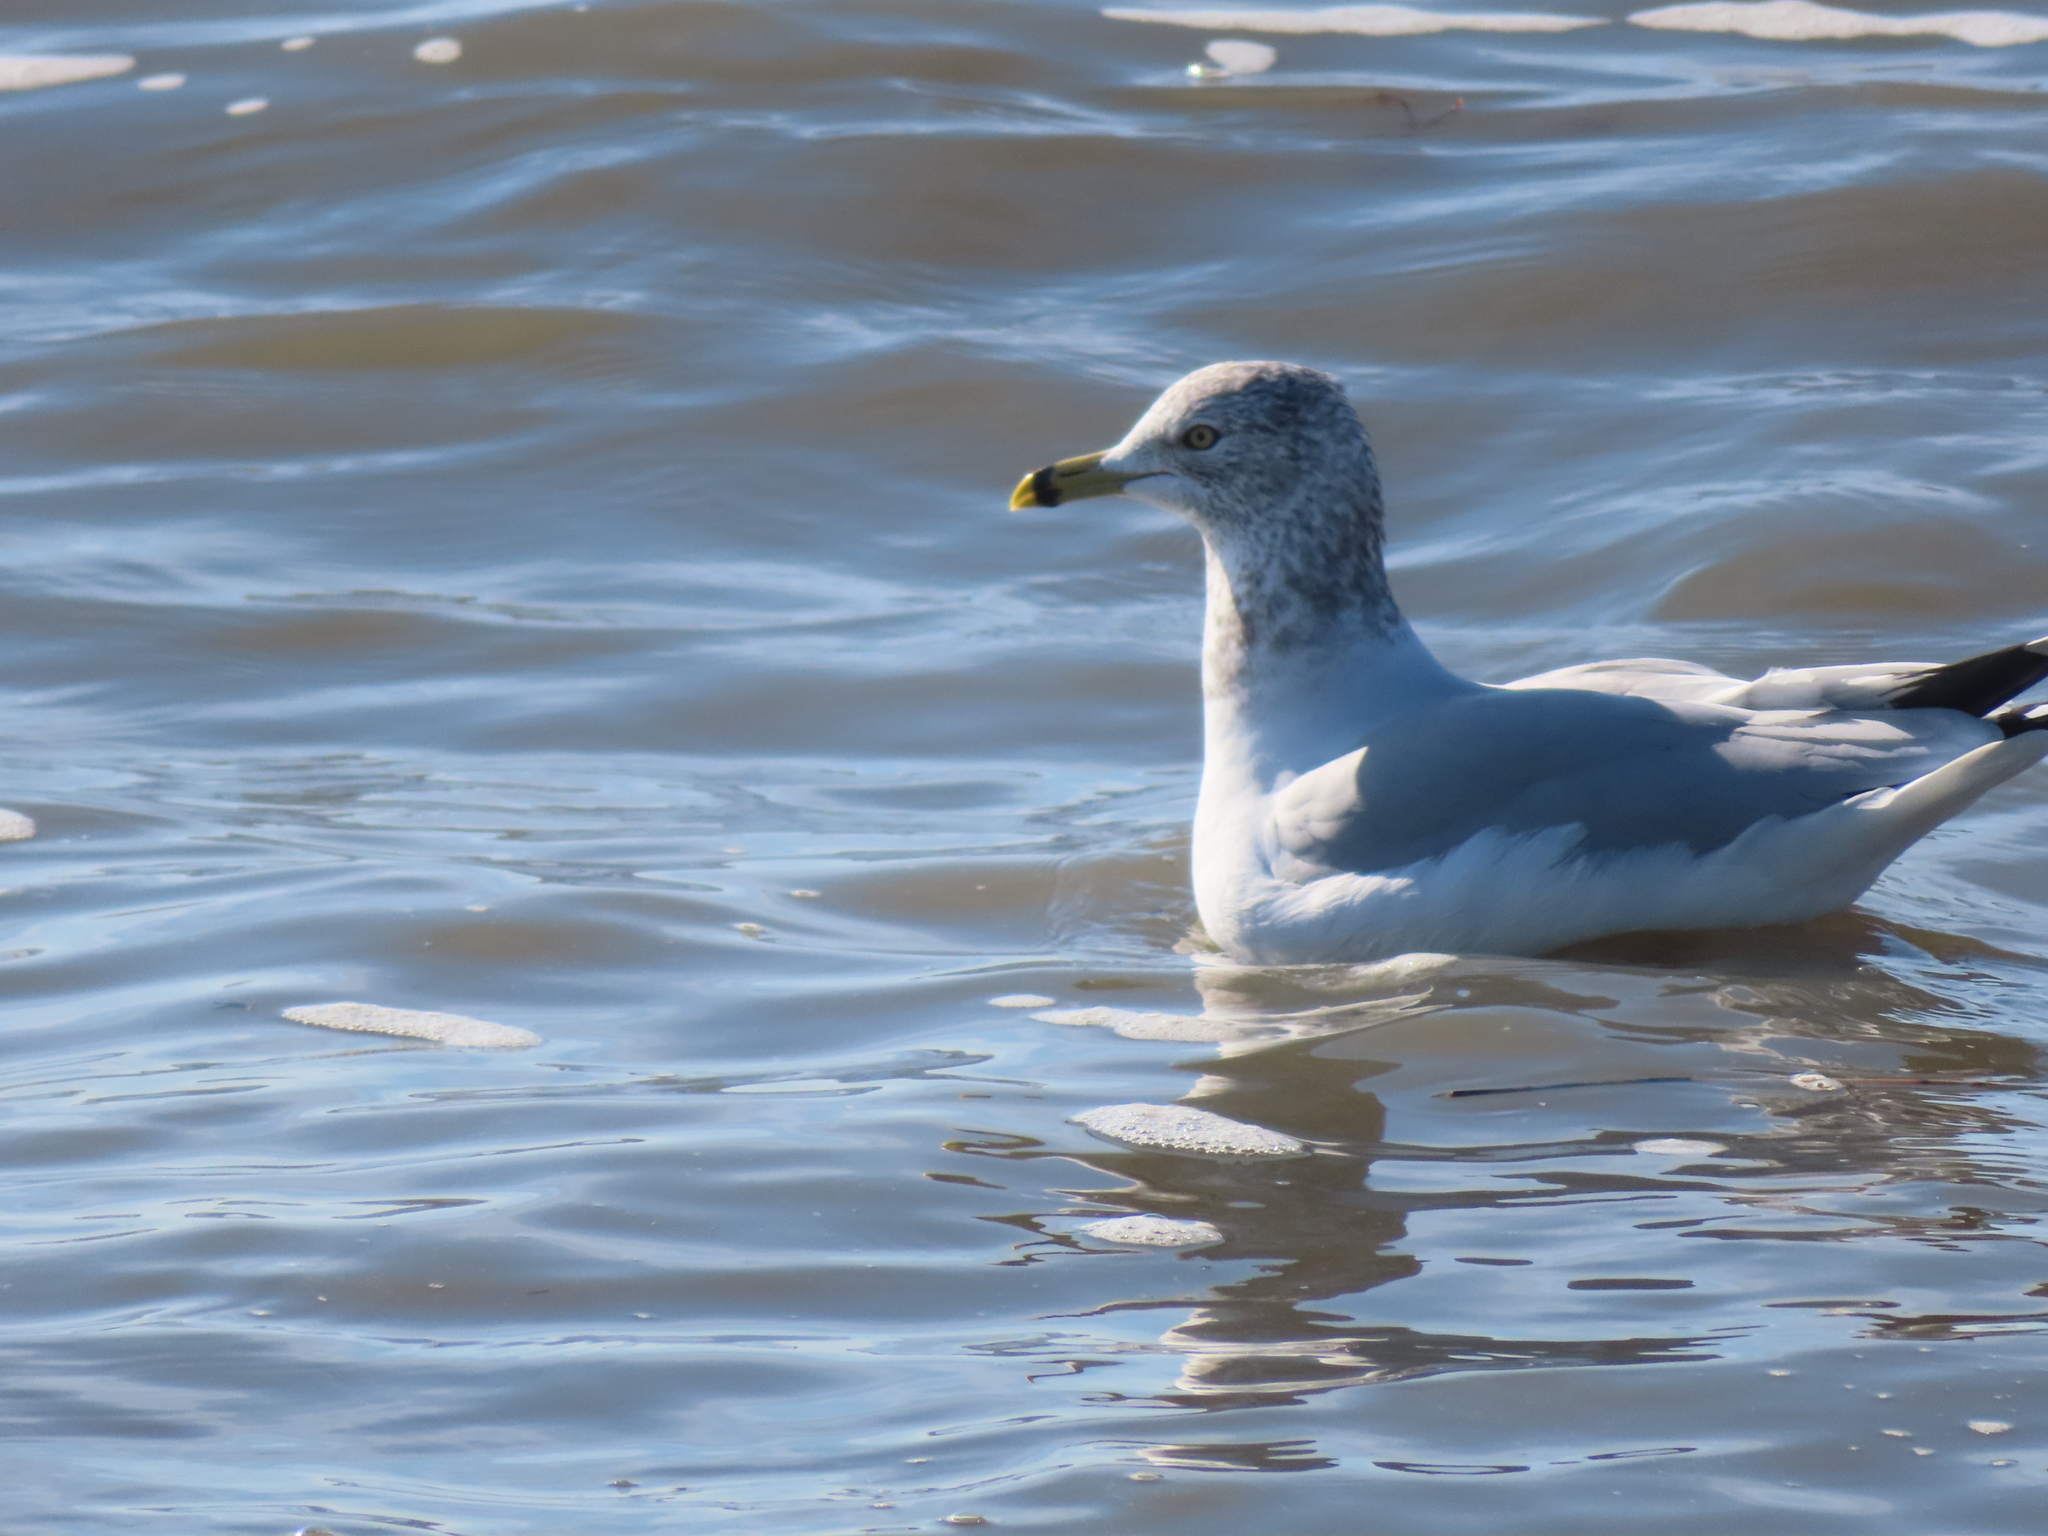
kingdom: Animalia
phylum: Chordata
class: Aves
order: Charadriiformes
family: Laridae
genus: Larus
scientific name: Larus delawarensis
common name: Ring-billed gull
